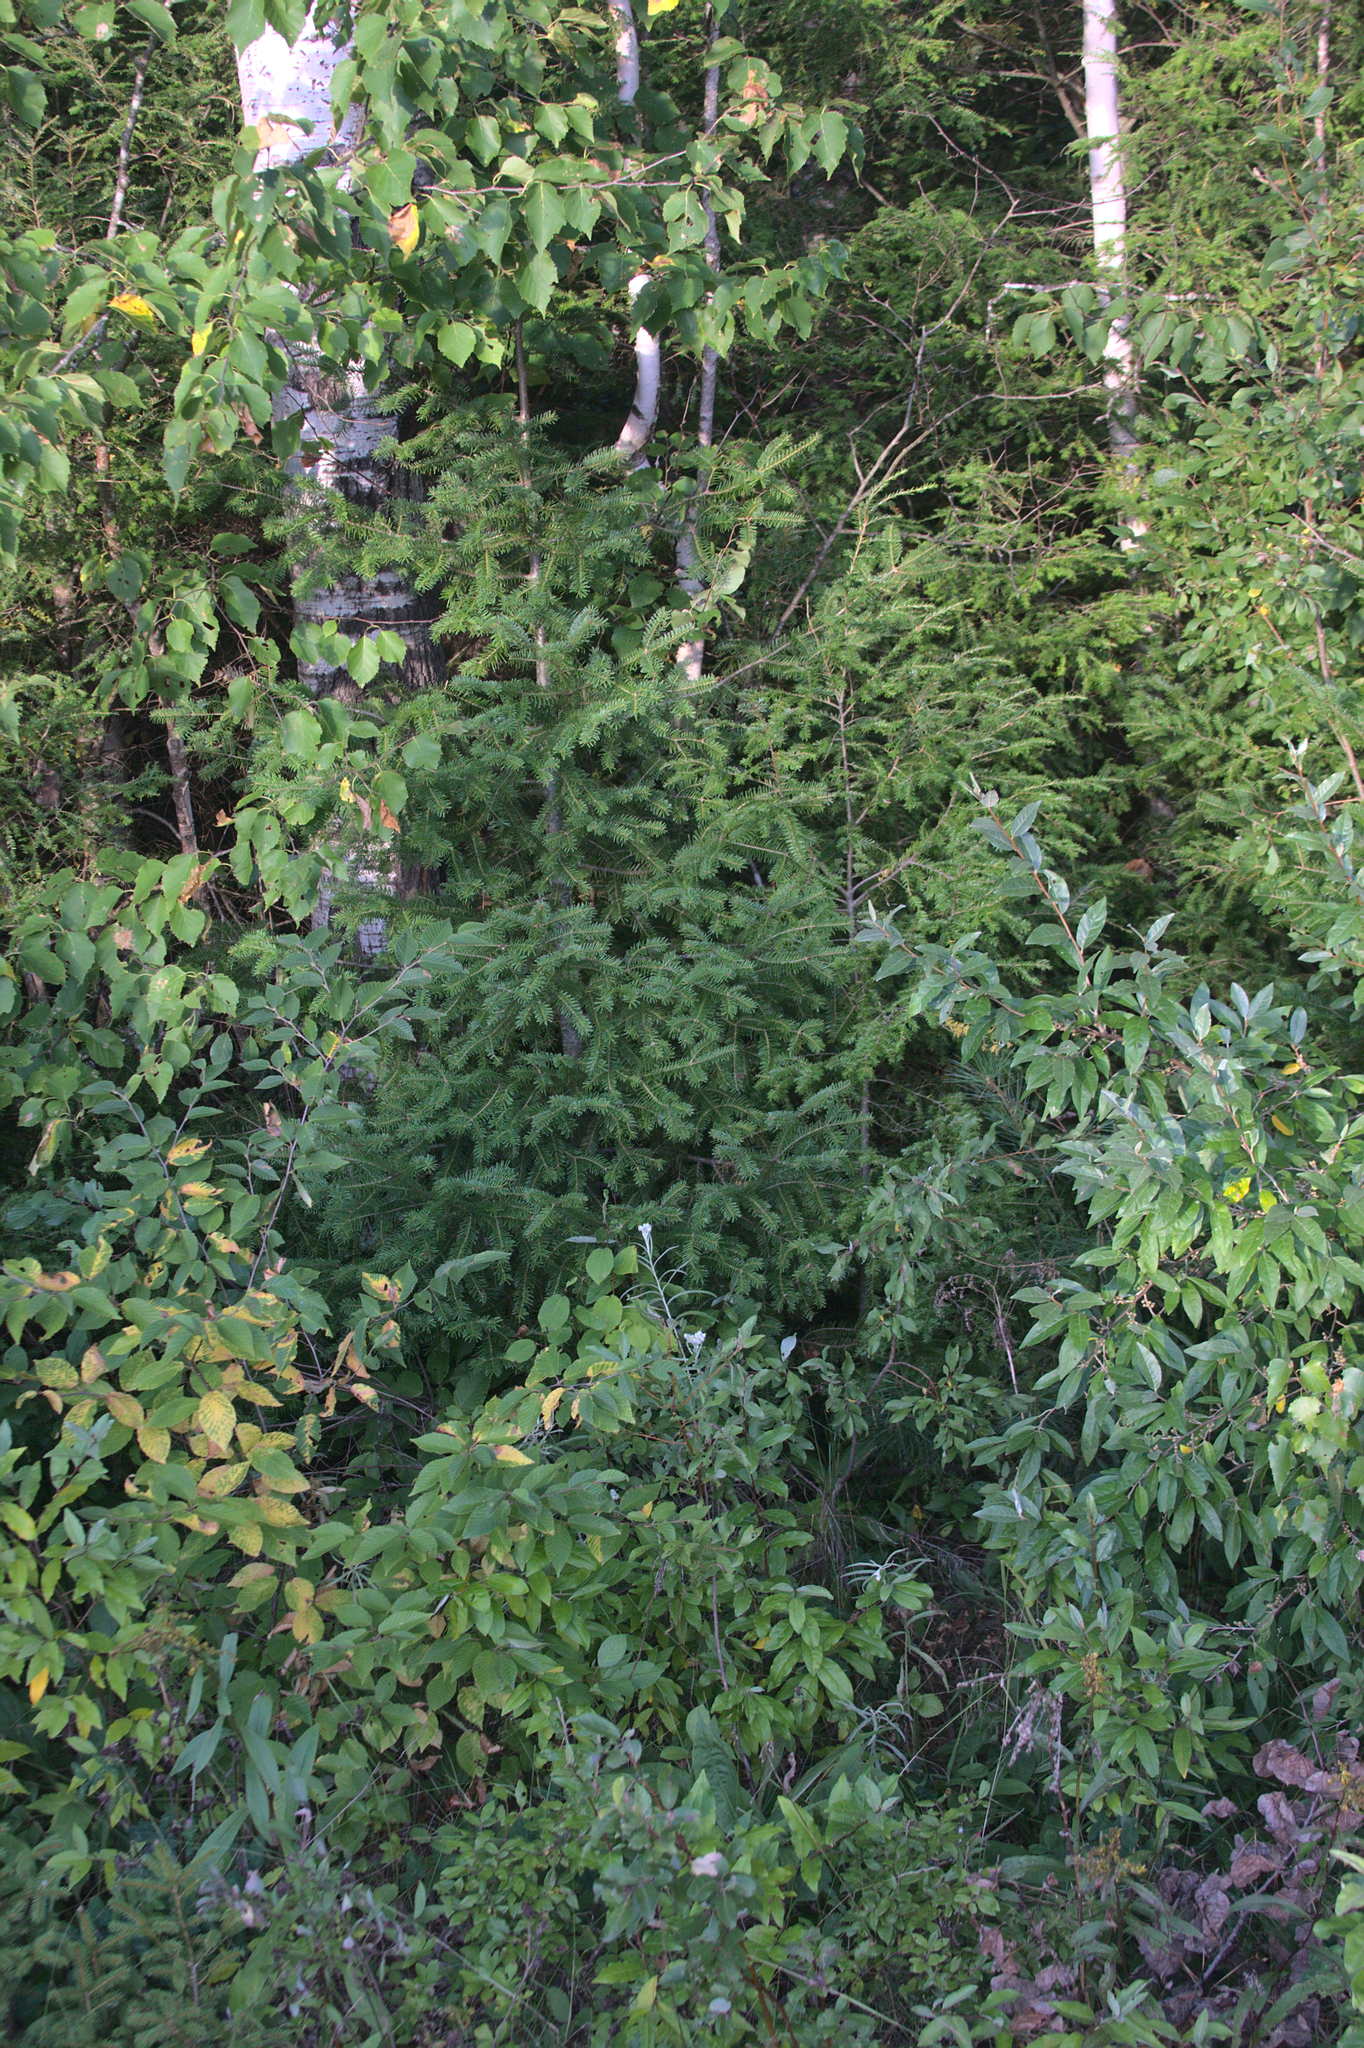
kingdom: Plantae
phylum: Tracheophyta
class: Pinopsida
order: Pinales
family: Pinaceae
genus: Abies
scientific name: Abies balsamea
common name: Balsam fir
